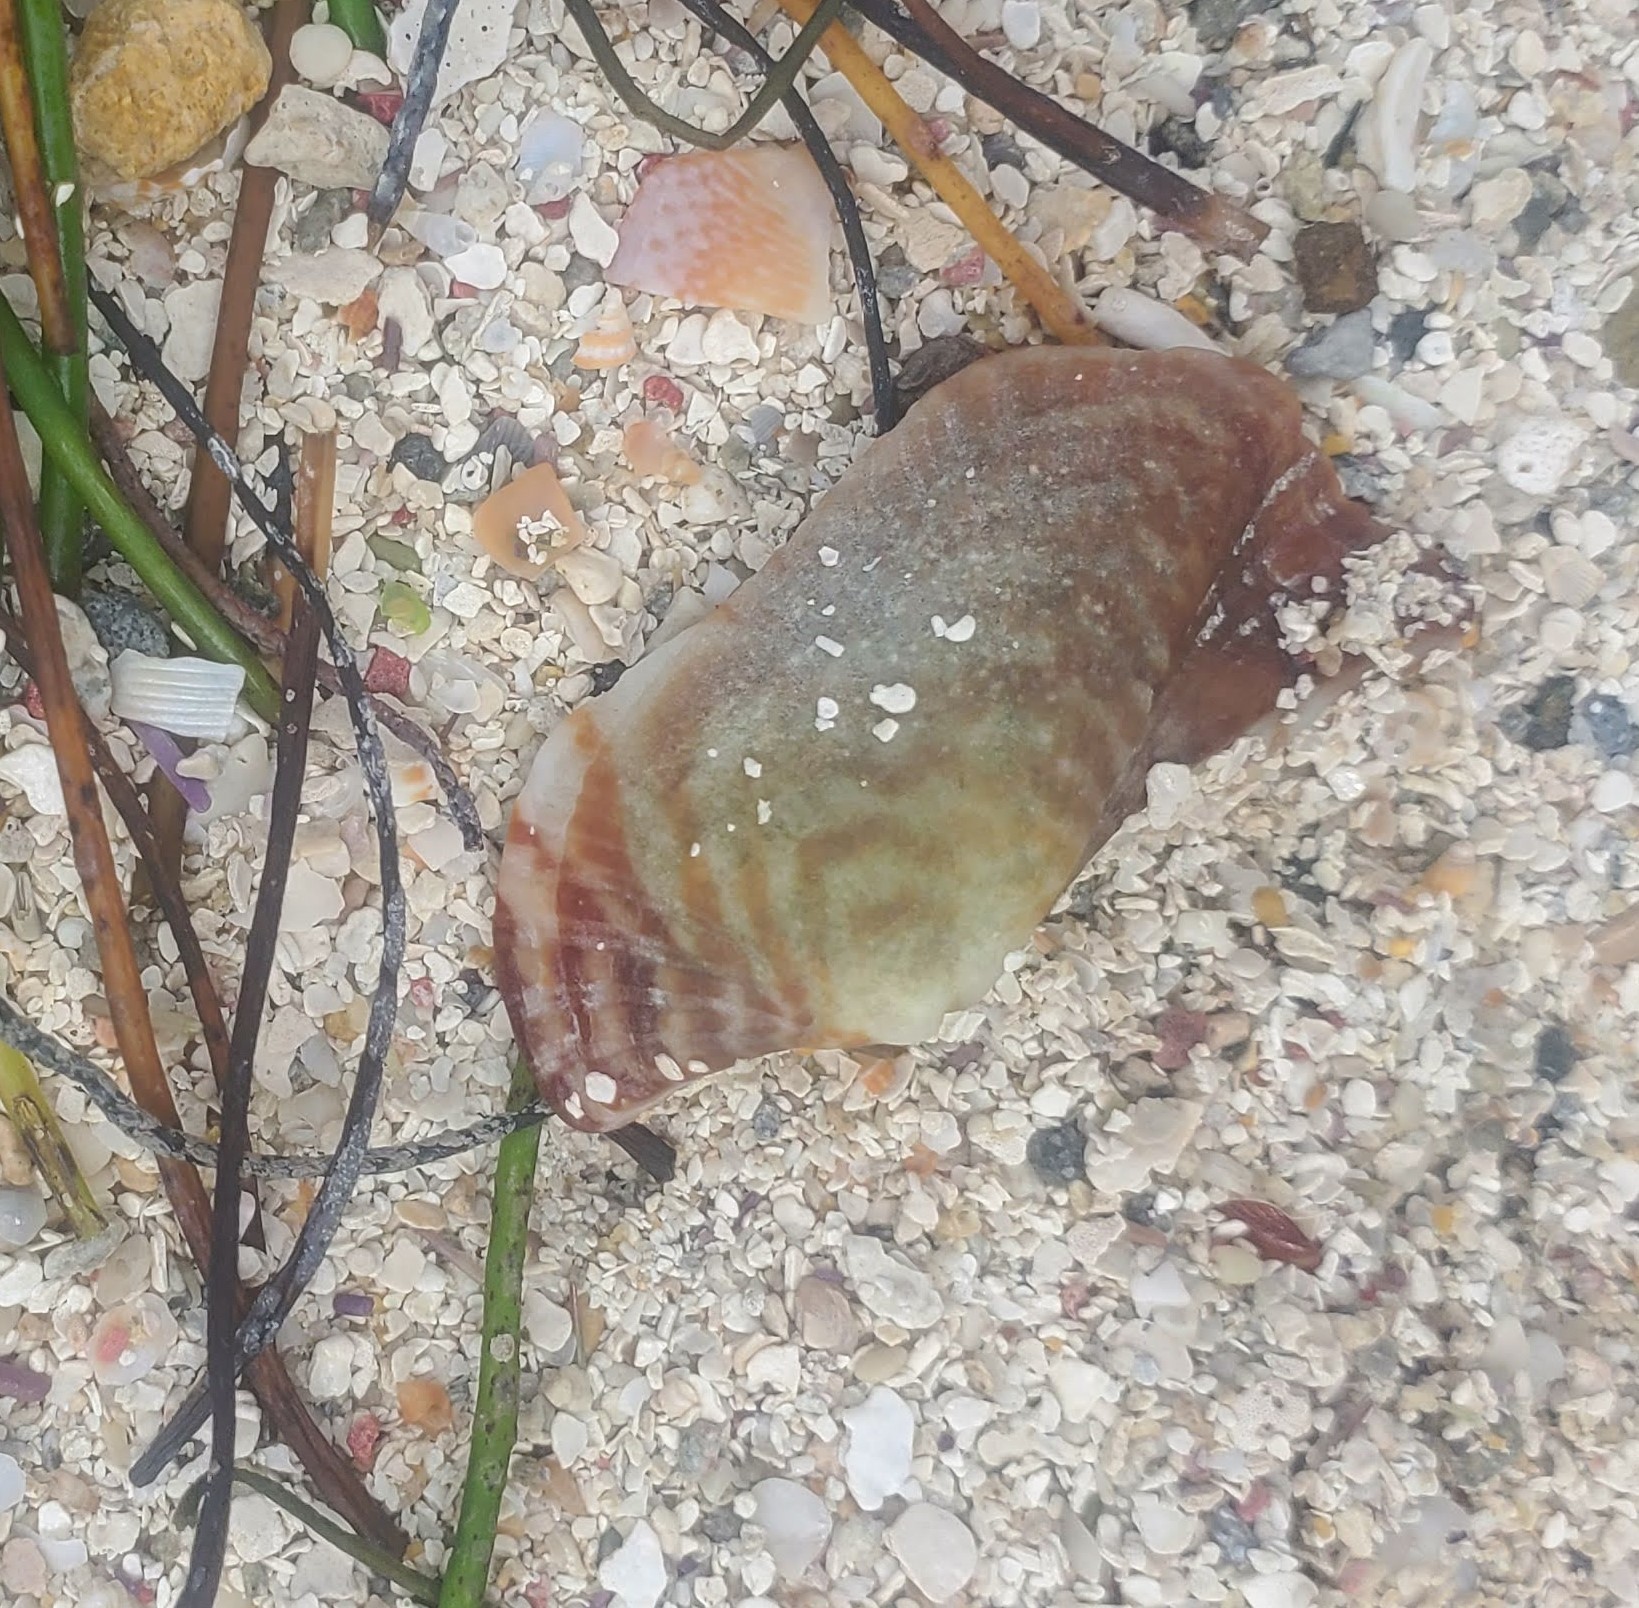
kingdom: Animalia
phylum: Mollusca
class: Bivalvia
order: Arcida
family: Arcidae
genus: Arca
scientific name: Arca zebra
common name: Atlantic turkey wing
